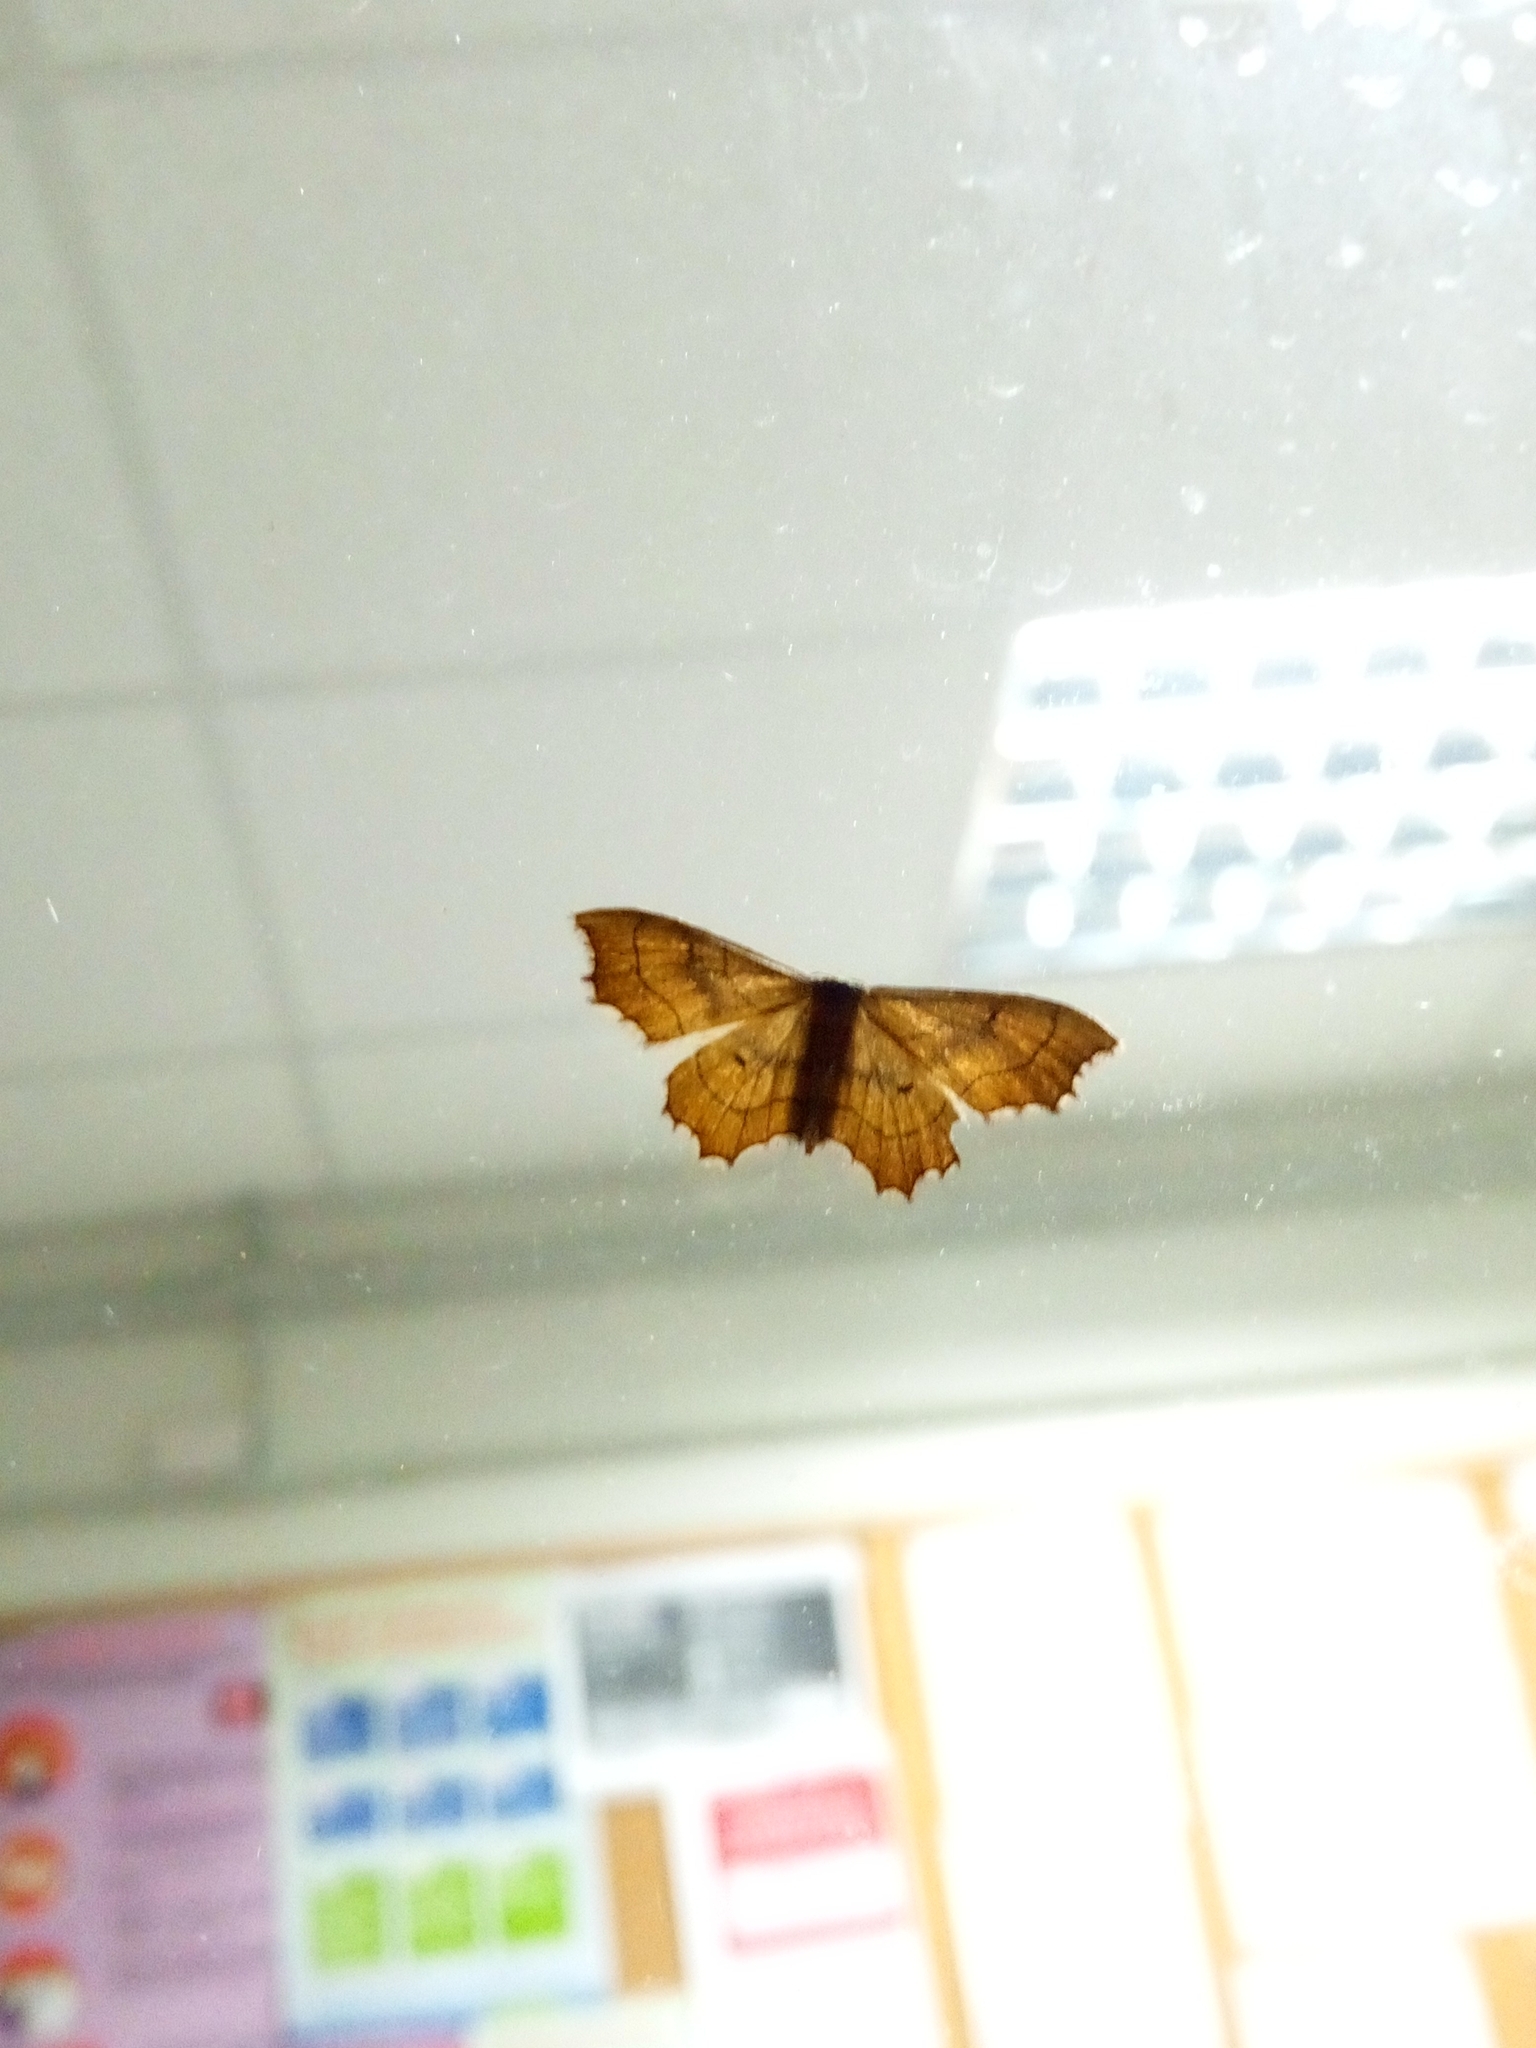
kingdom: Animalia
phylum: Arthropoda
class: Insecta
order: Lepidoptera
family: Geometridae
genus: Idaea
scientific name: Idaea emarginata
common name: Small scallop
